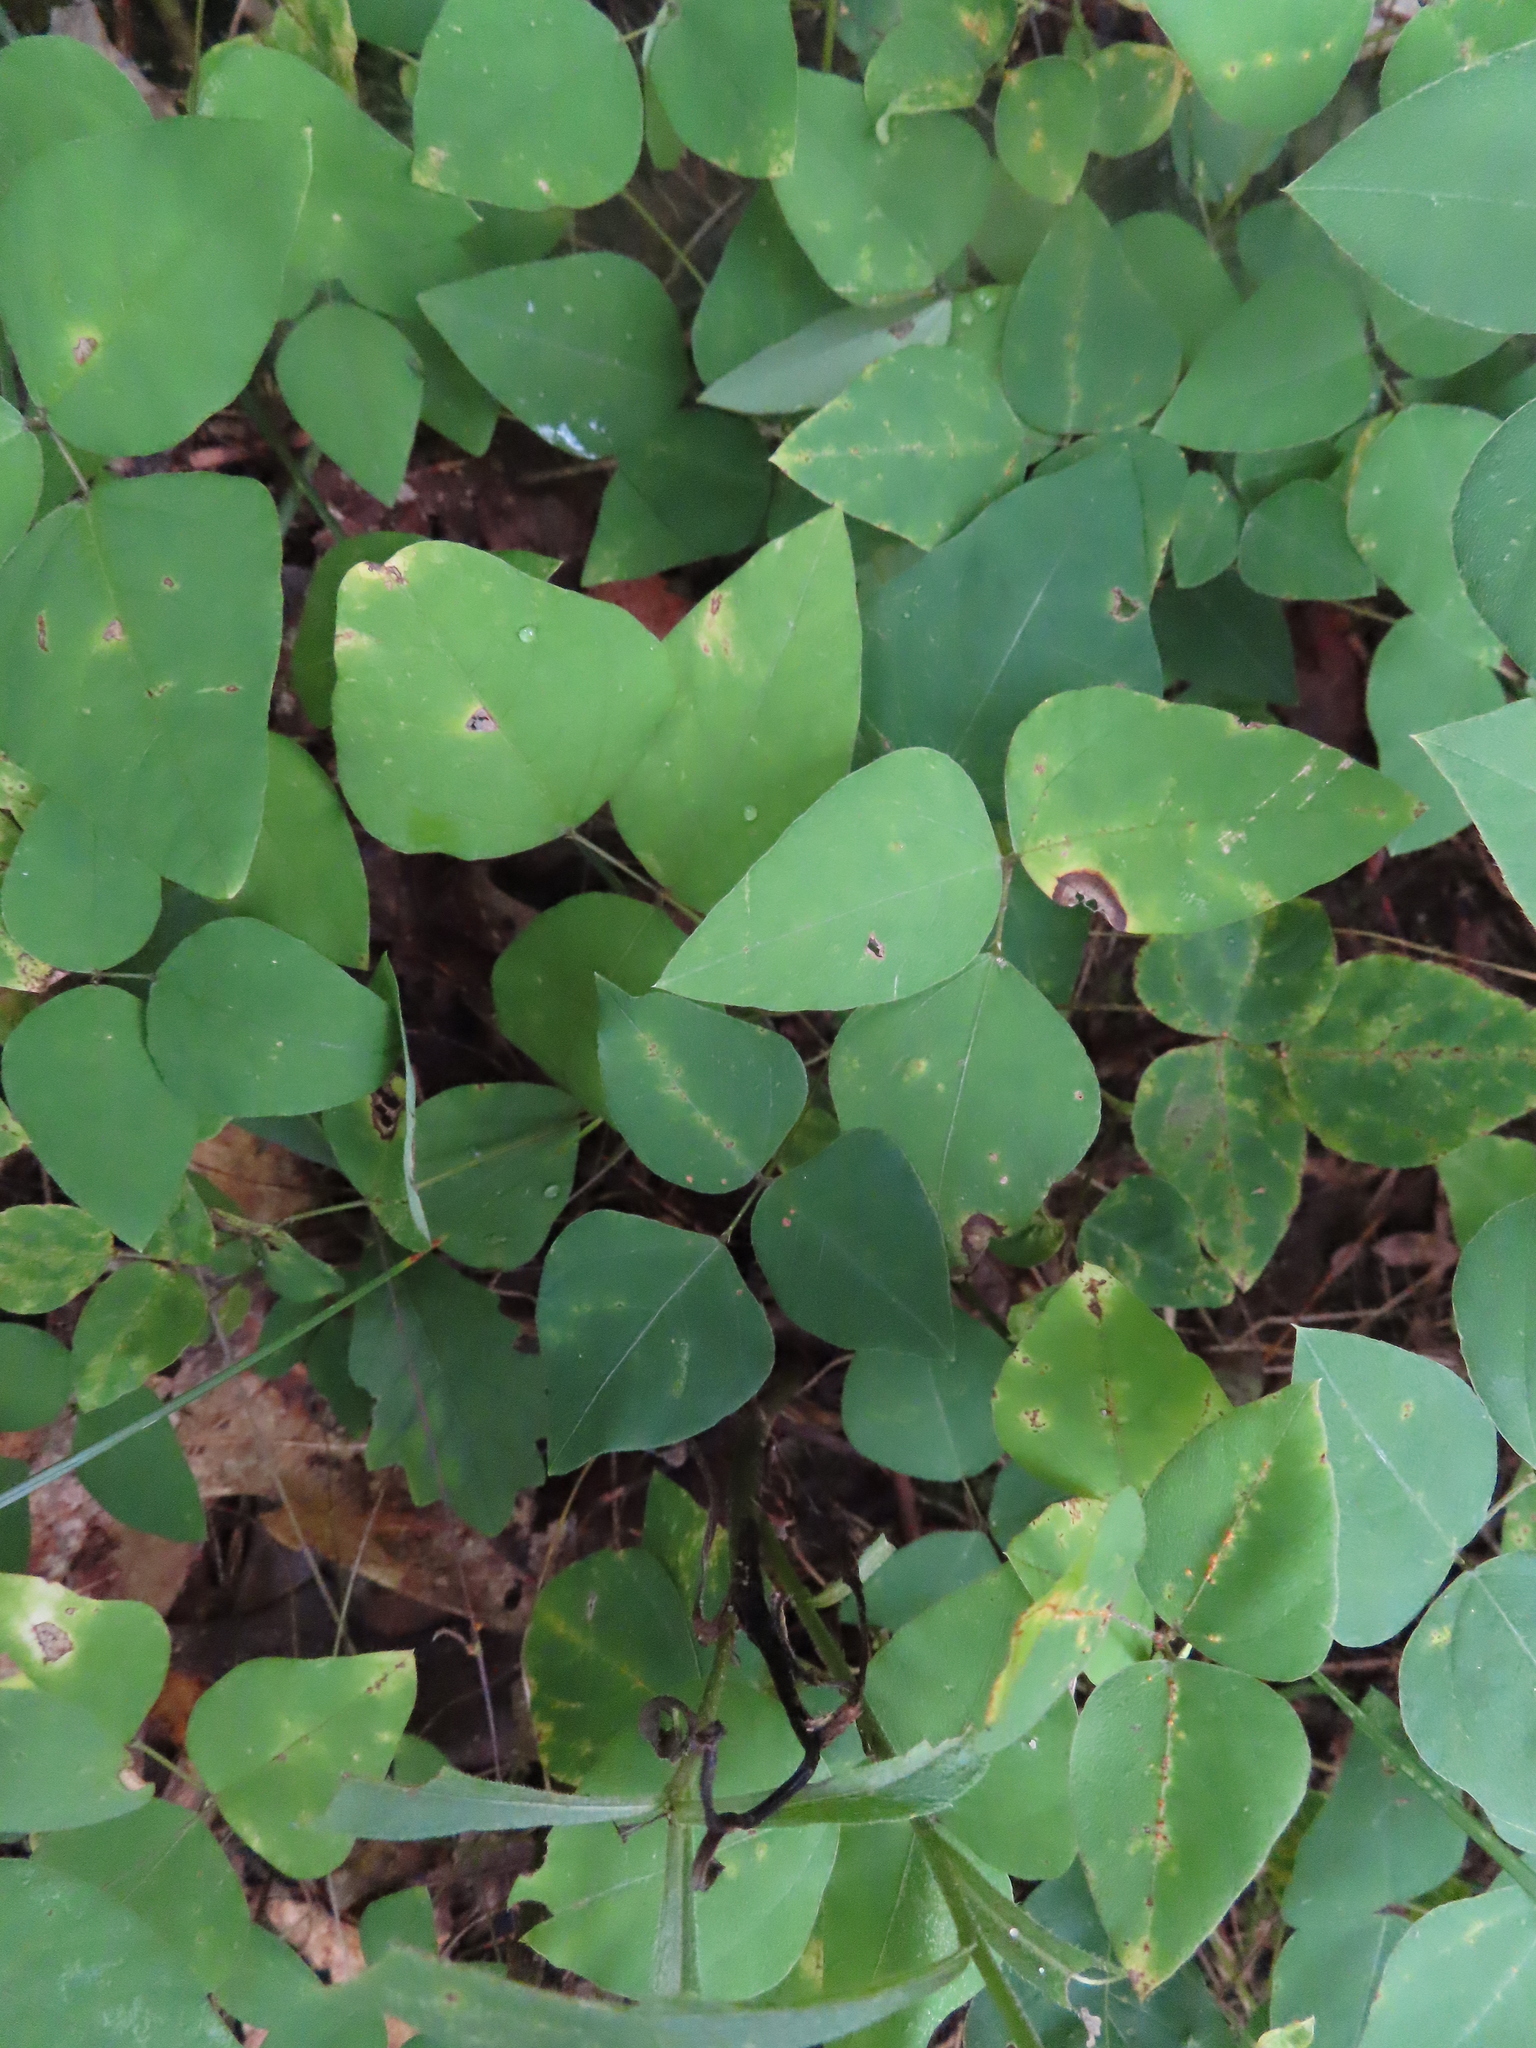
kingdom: Plantae
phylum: Tracheophyta
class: Magnoliopsida
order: Fabales
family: Fabaceae
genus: Amphicarpaea
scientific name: Amphicarpaea bracteata
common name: American hog peanut
